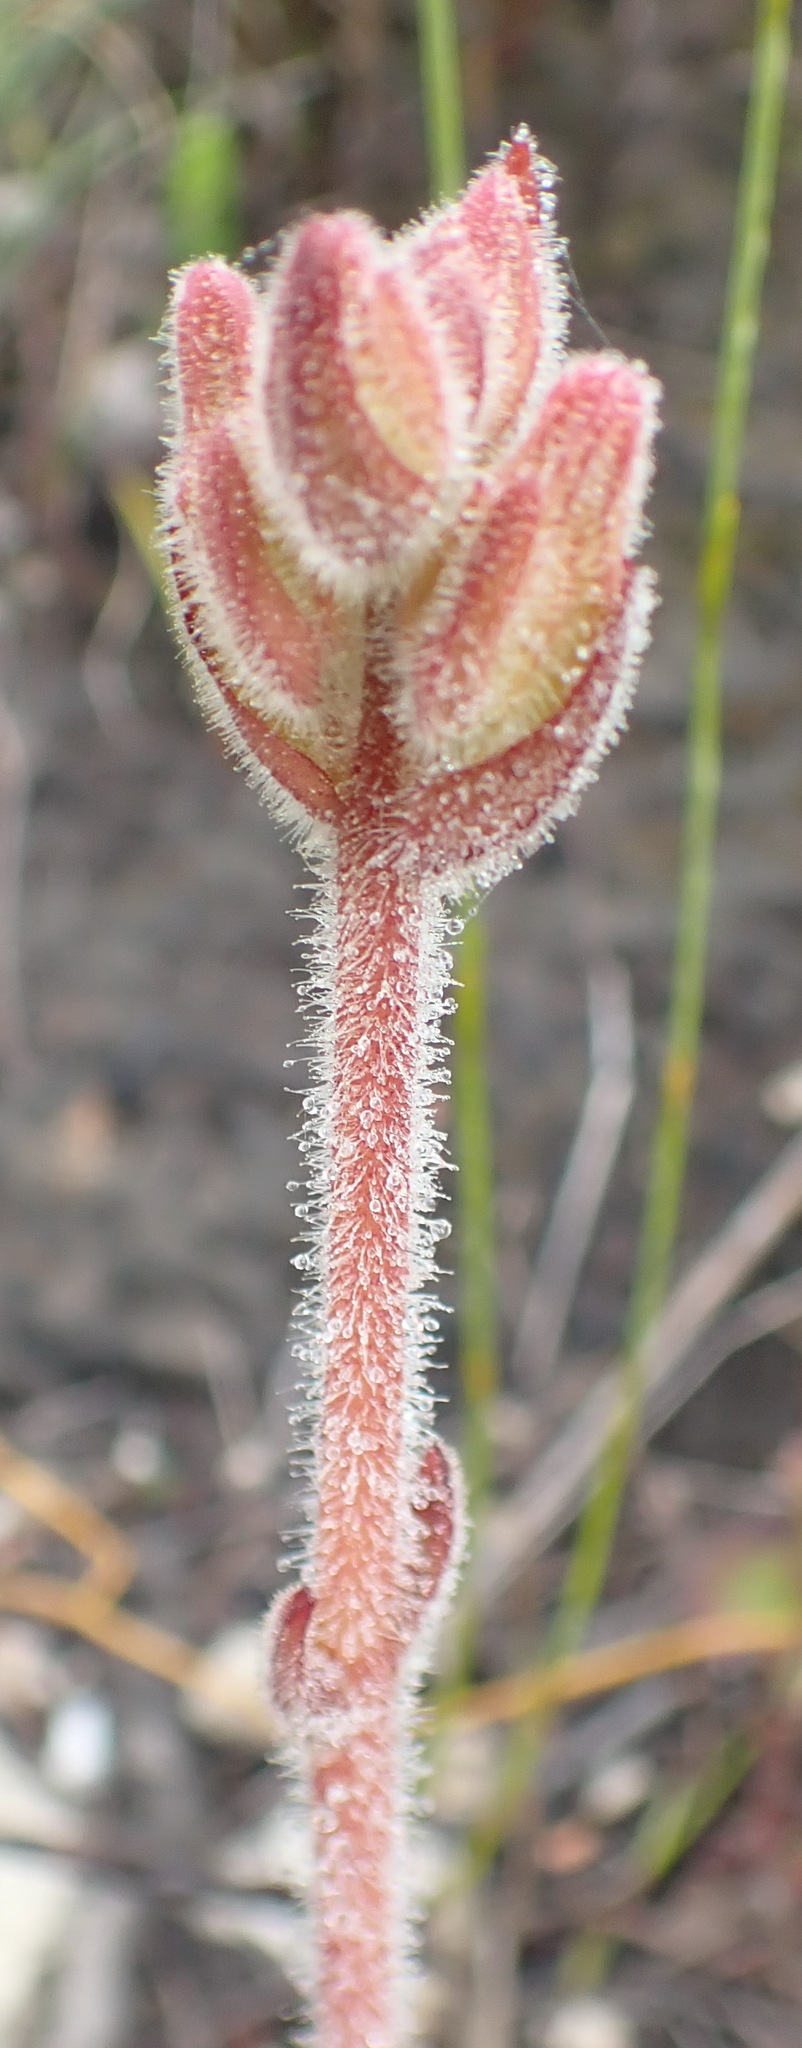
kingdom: Plantae
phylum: Tracheophyta
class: Magnoliopsida
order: Lamiales
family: Orobanchaceae
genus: Harveya
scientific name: Harveya capensis
